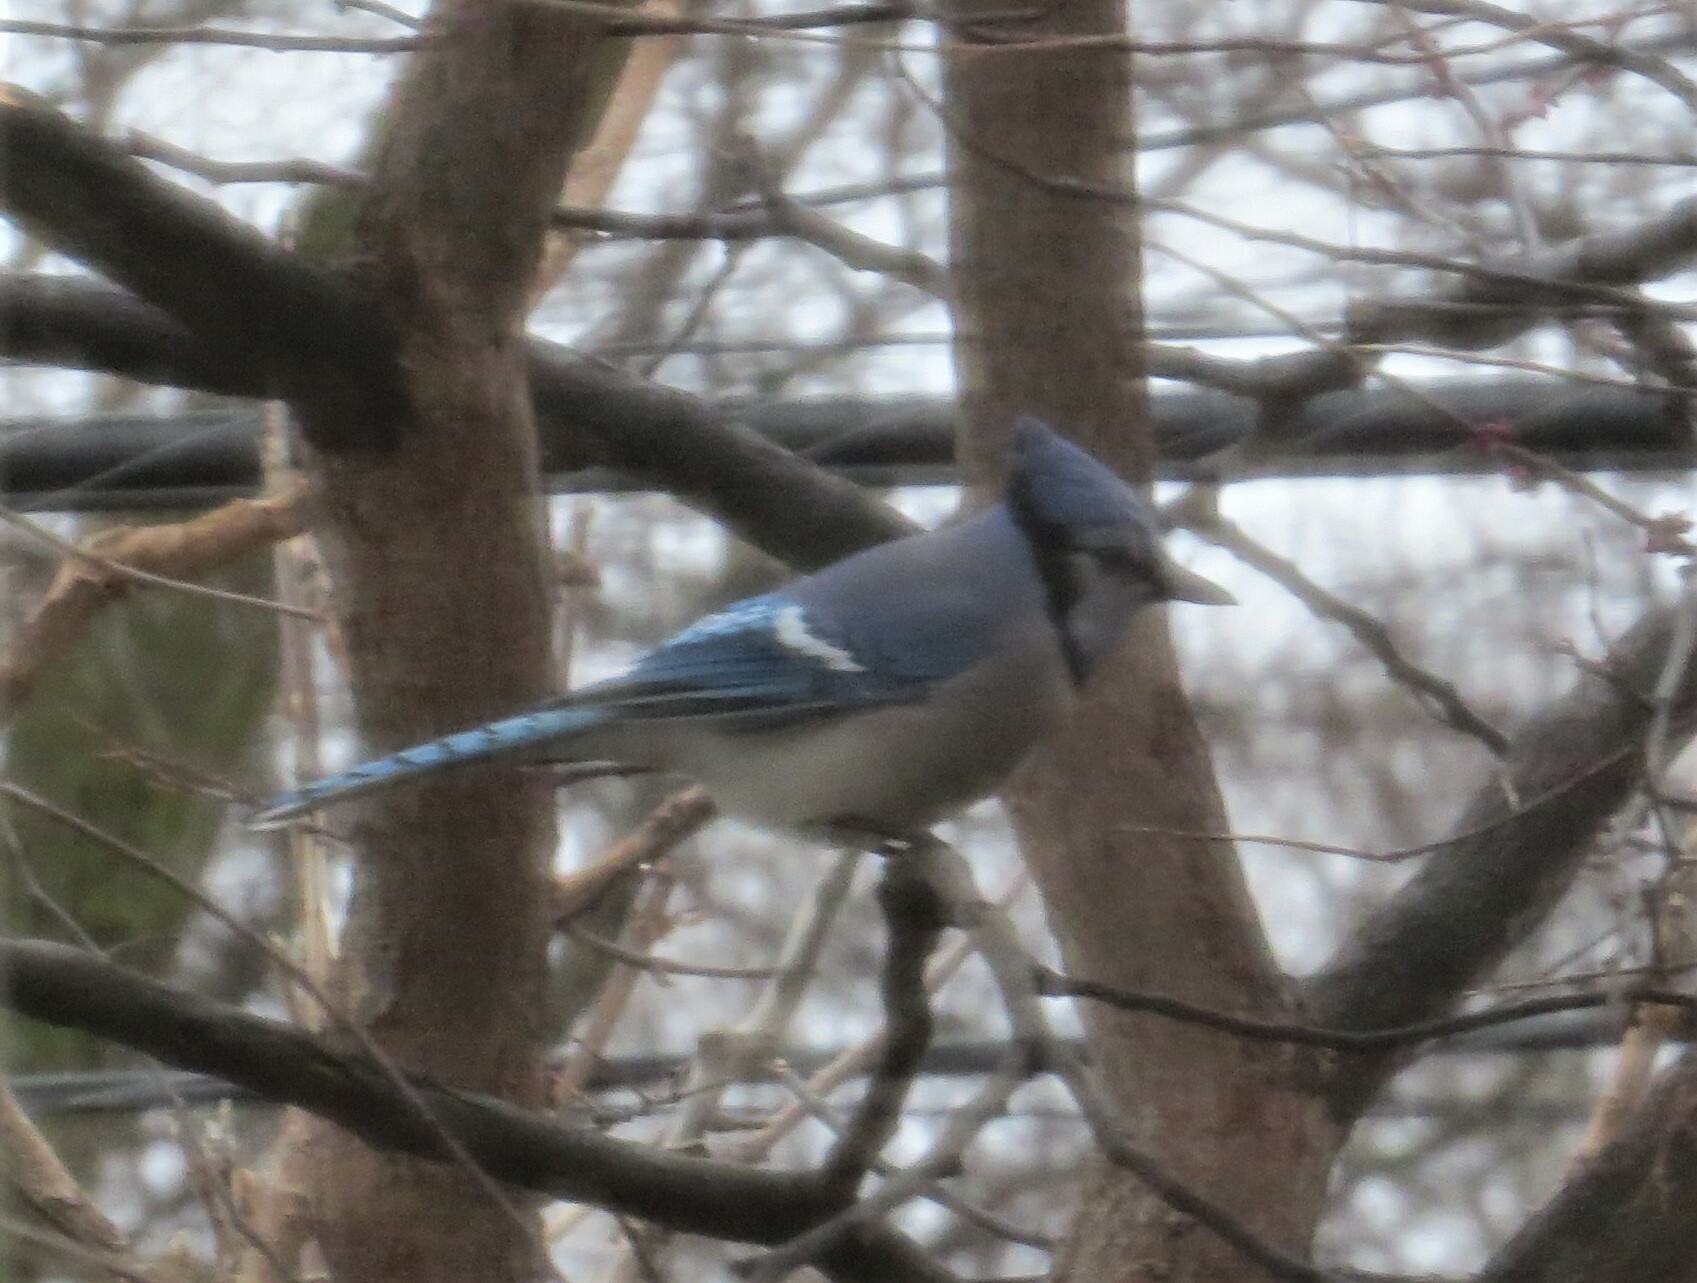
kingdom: Animalia
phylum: Chordata
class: Aves
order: Passeriformes
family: Corvidae
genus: Cyanocitta
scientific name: Cyanocitta cristata
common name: Blue jay
